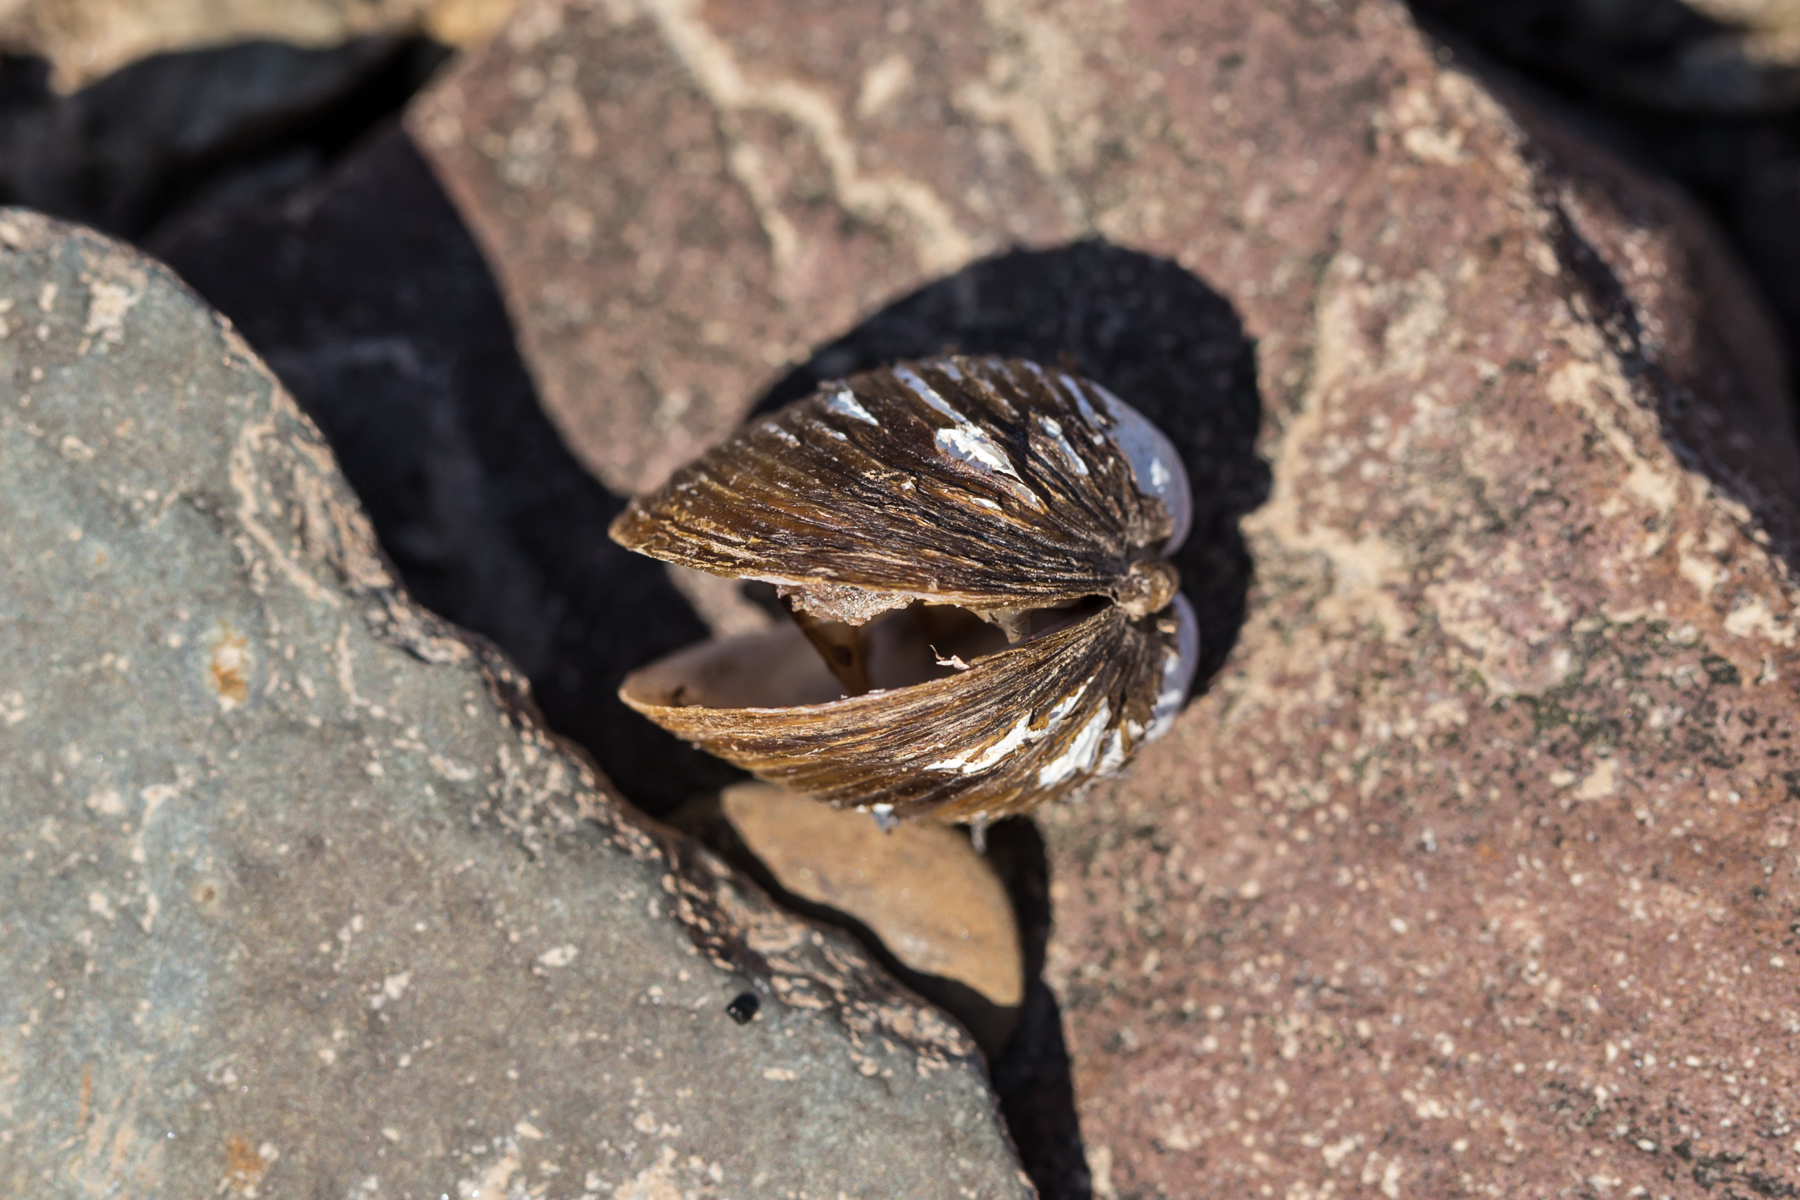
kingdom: Animalia
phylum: Mollusca
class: Bivalvia
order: Venerida
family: Cyrenidae
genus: Corbicula
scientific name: Corbicula fluminea
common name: Asian clam
